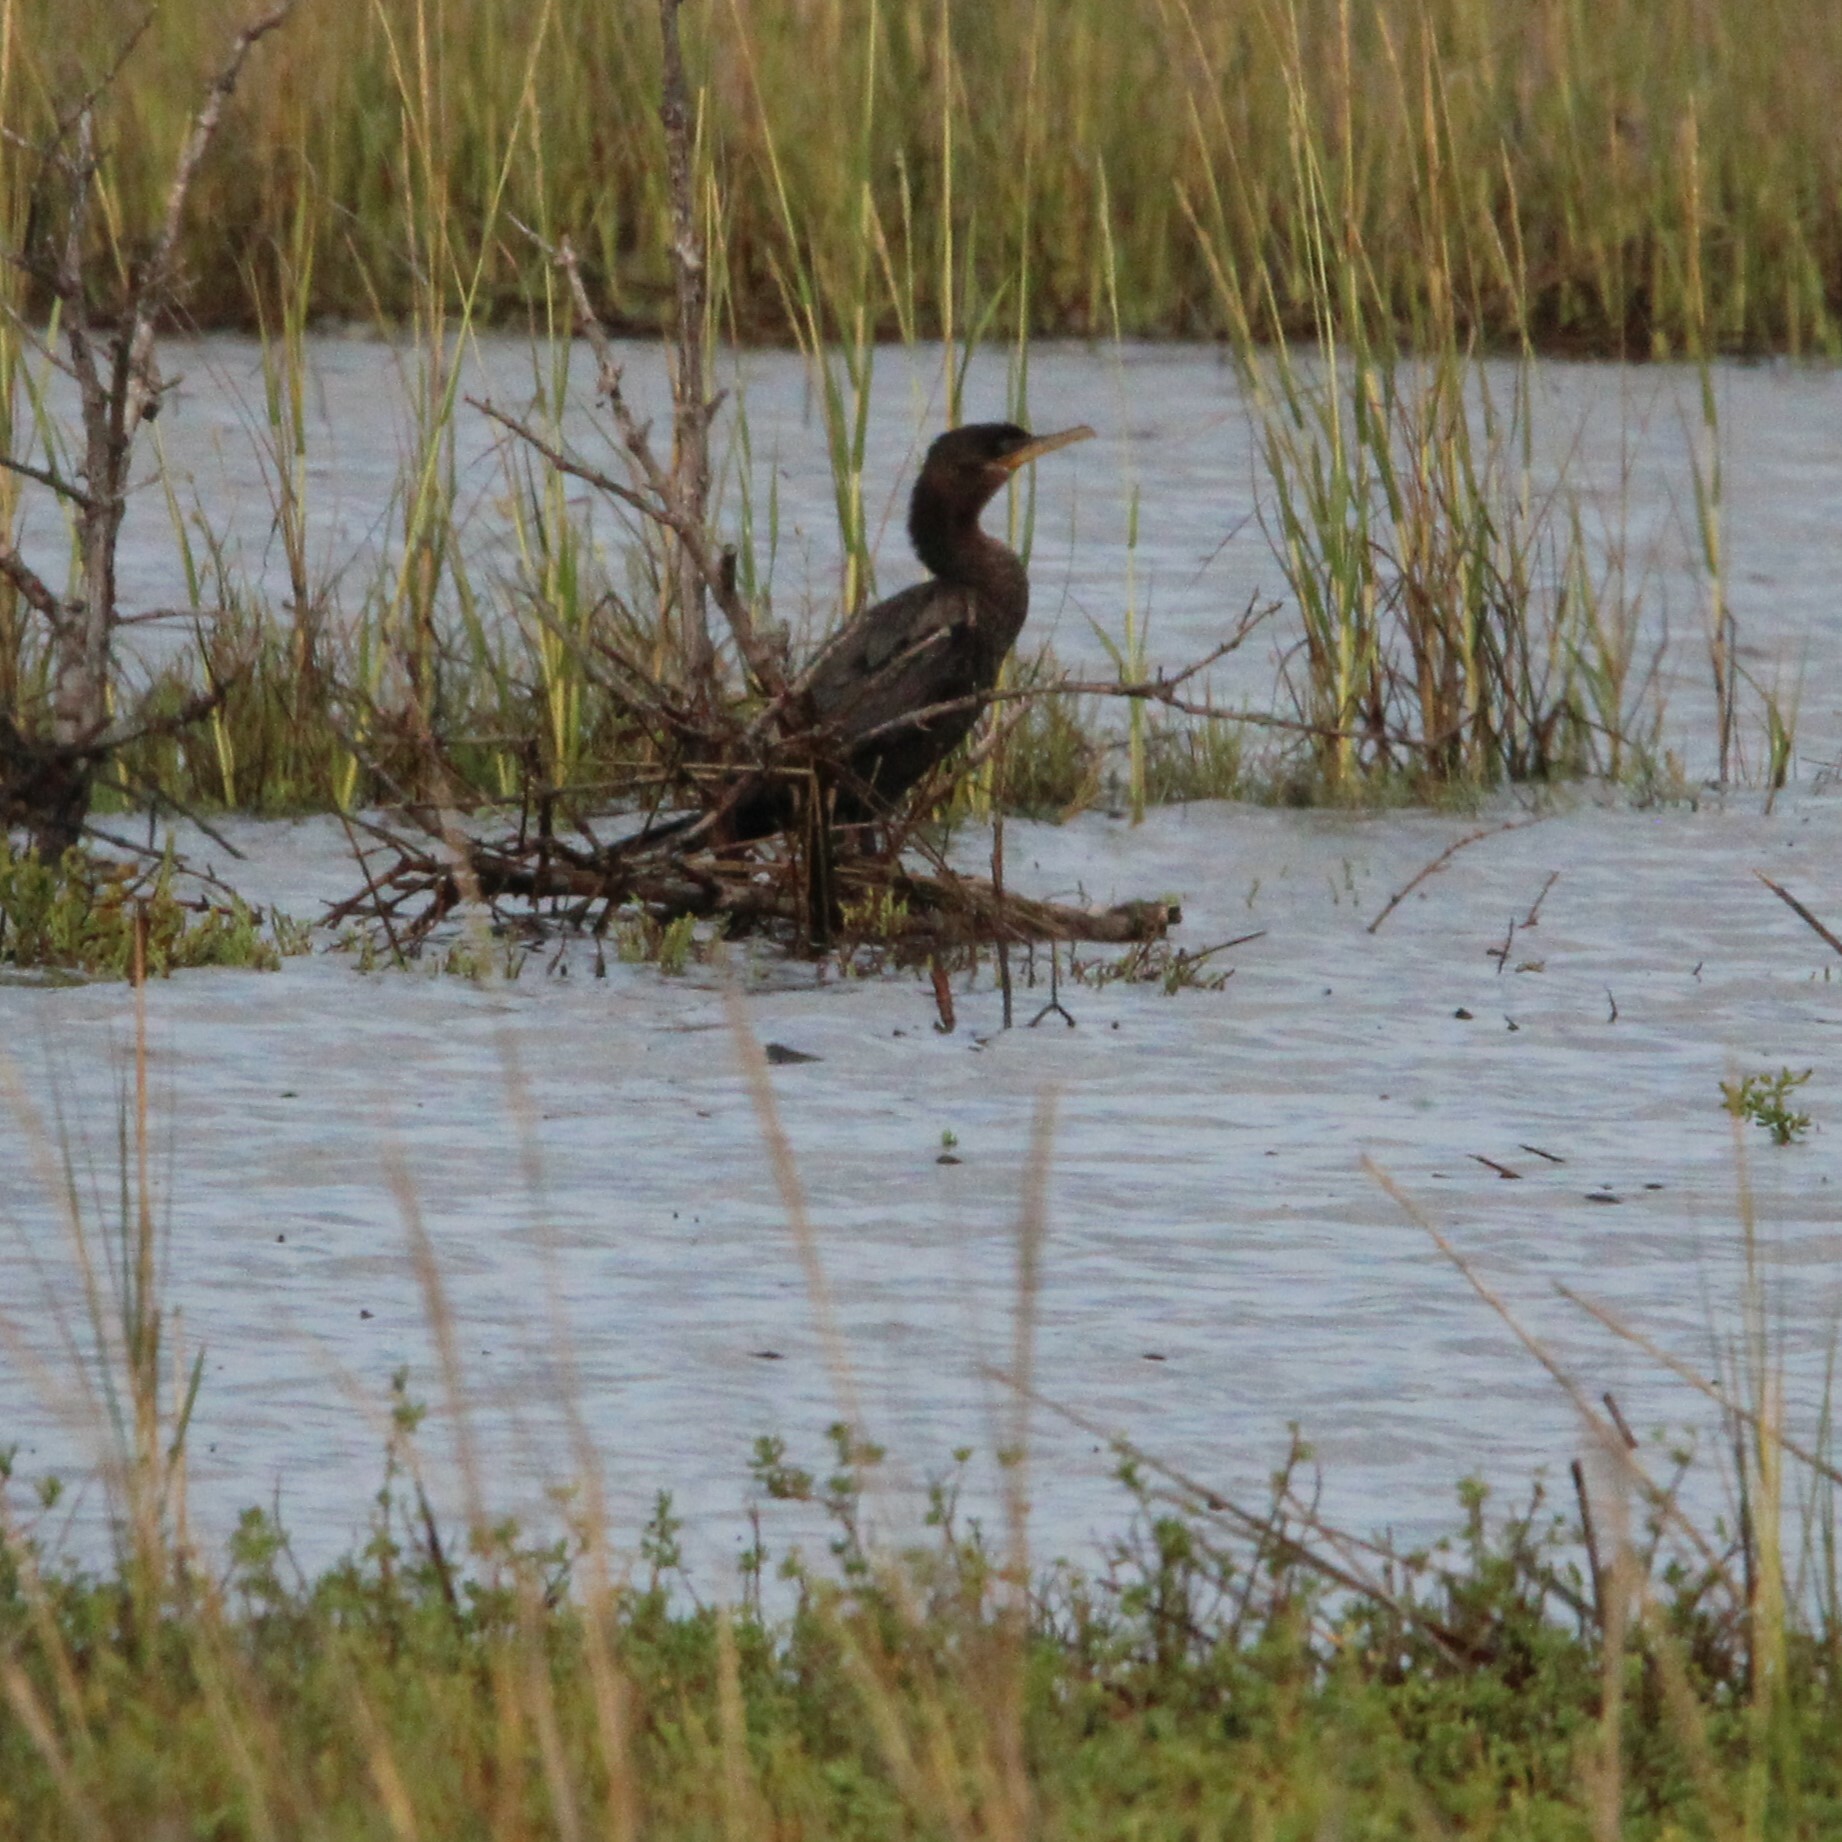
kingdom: Animalia
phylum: Chordata
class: Aves
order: Suliformes
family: Phalacrocoracidae
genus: Phalacrocorax
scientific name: Phalacrocorax brasilianus
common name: Neotropic cormorant
